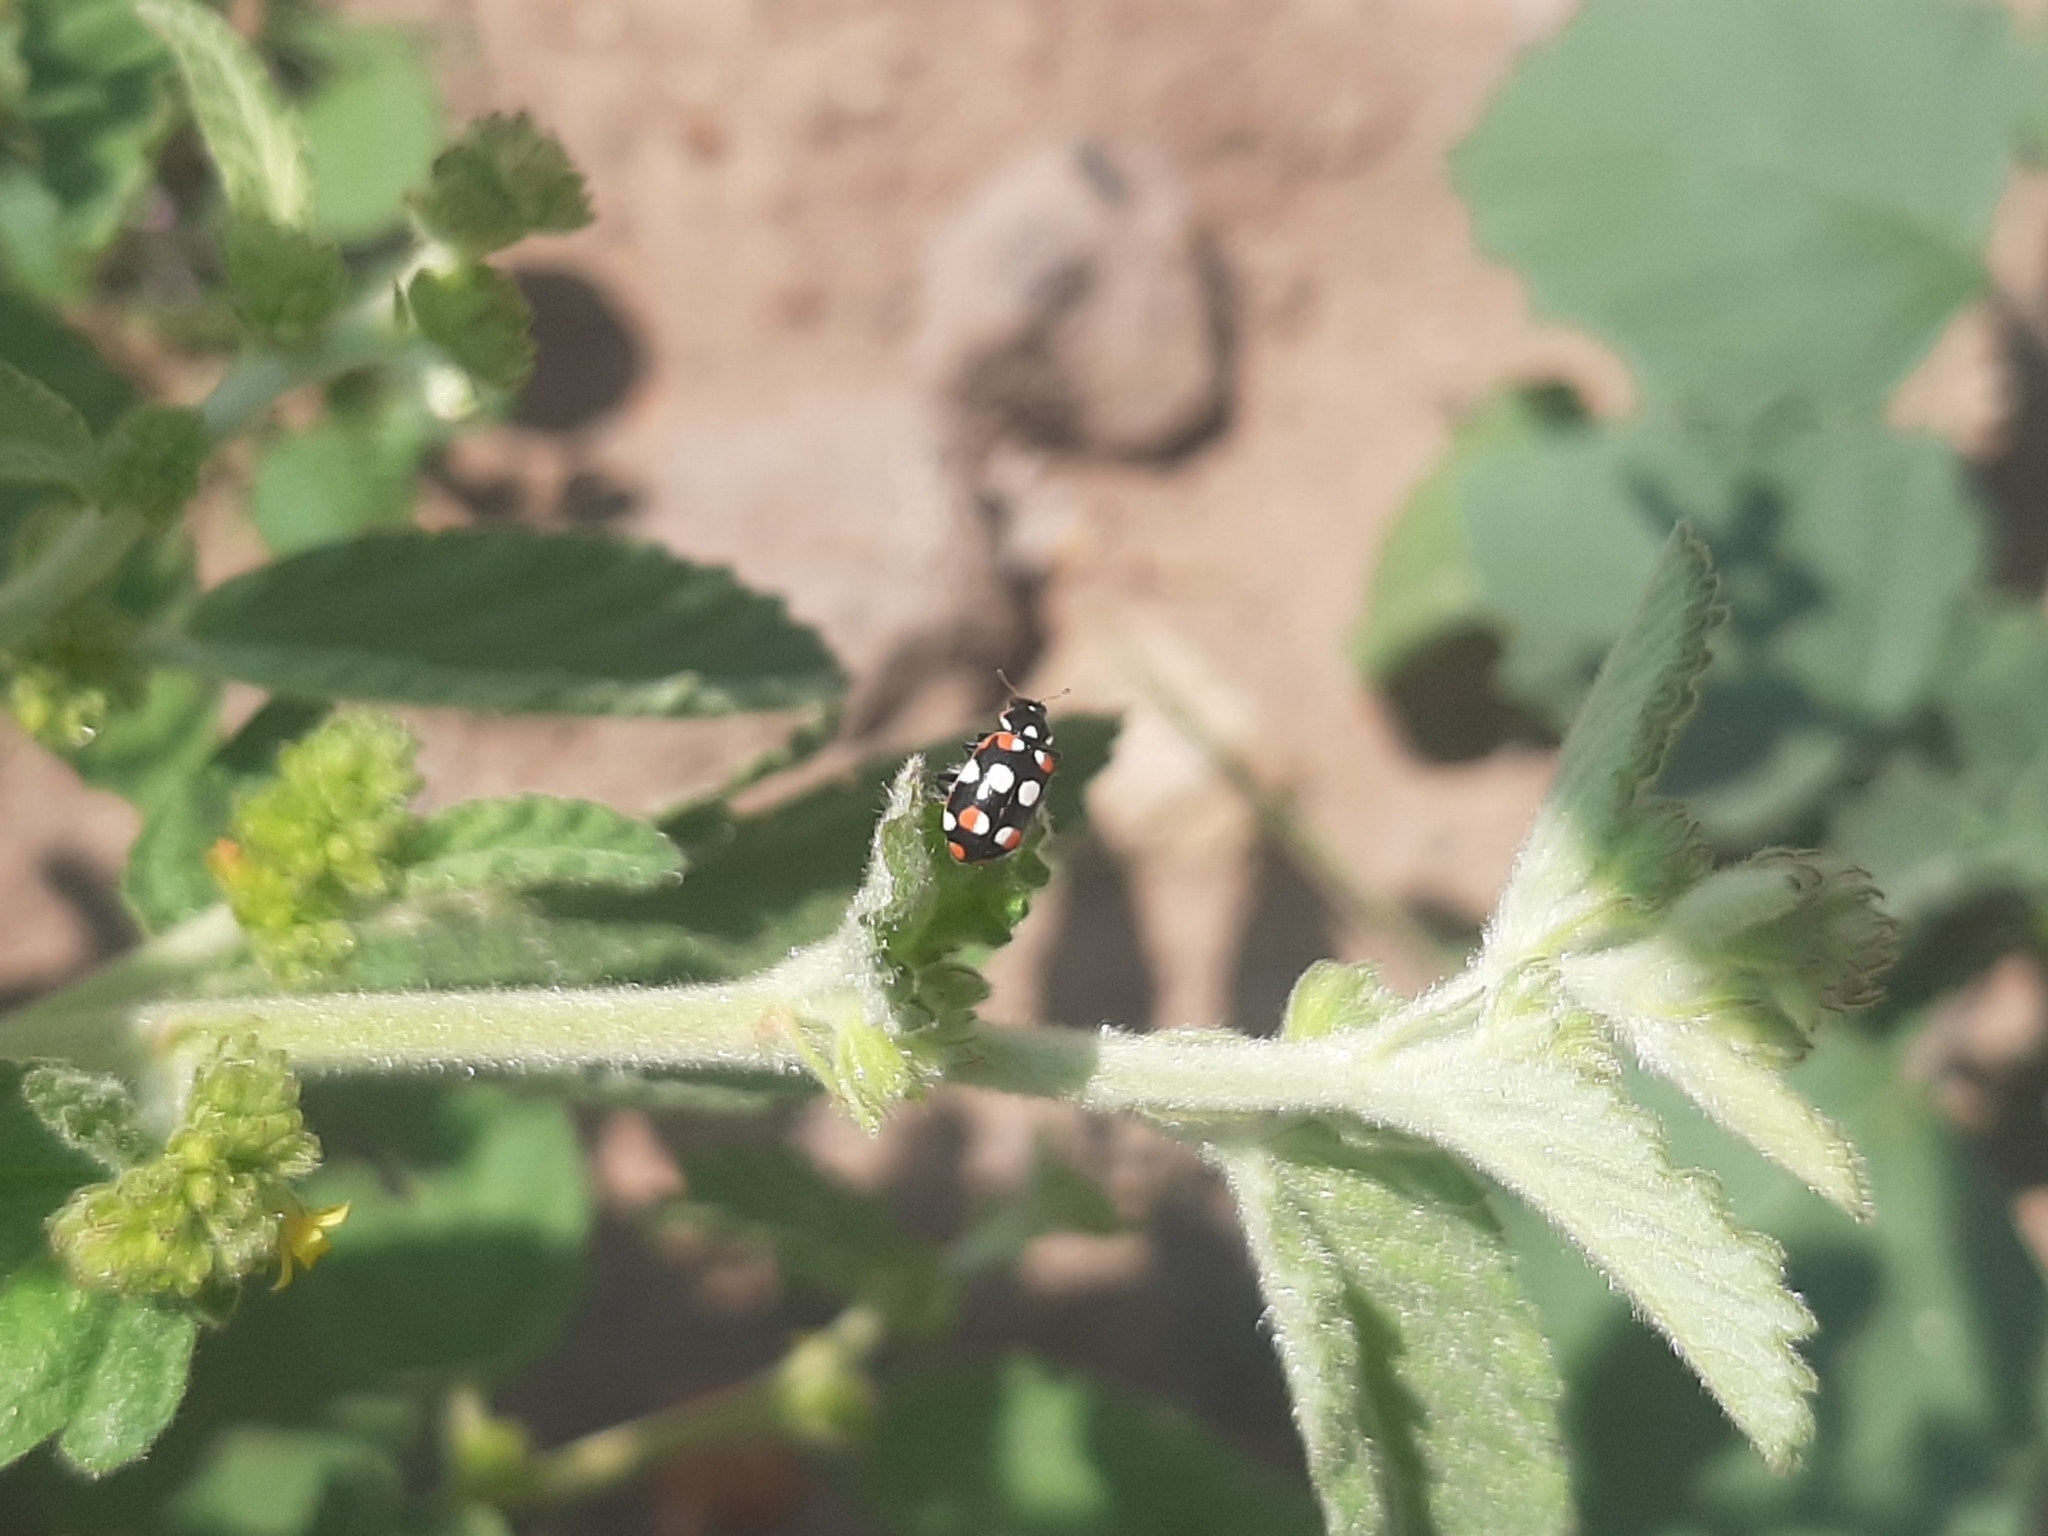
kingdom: Animalia
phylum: Arthropoda
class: Insecta
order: Coleoptera
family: Coccinellidae
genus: Eriopis
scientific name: Eriopis connexa
